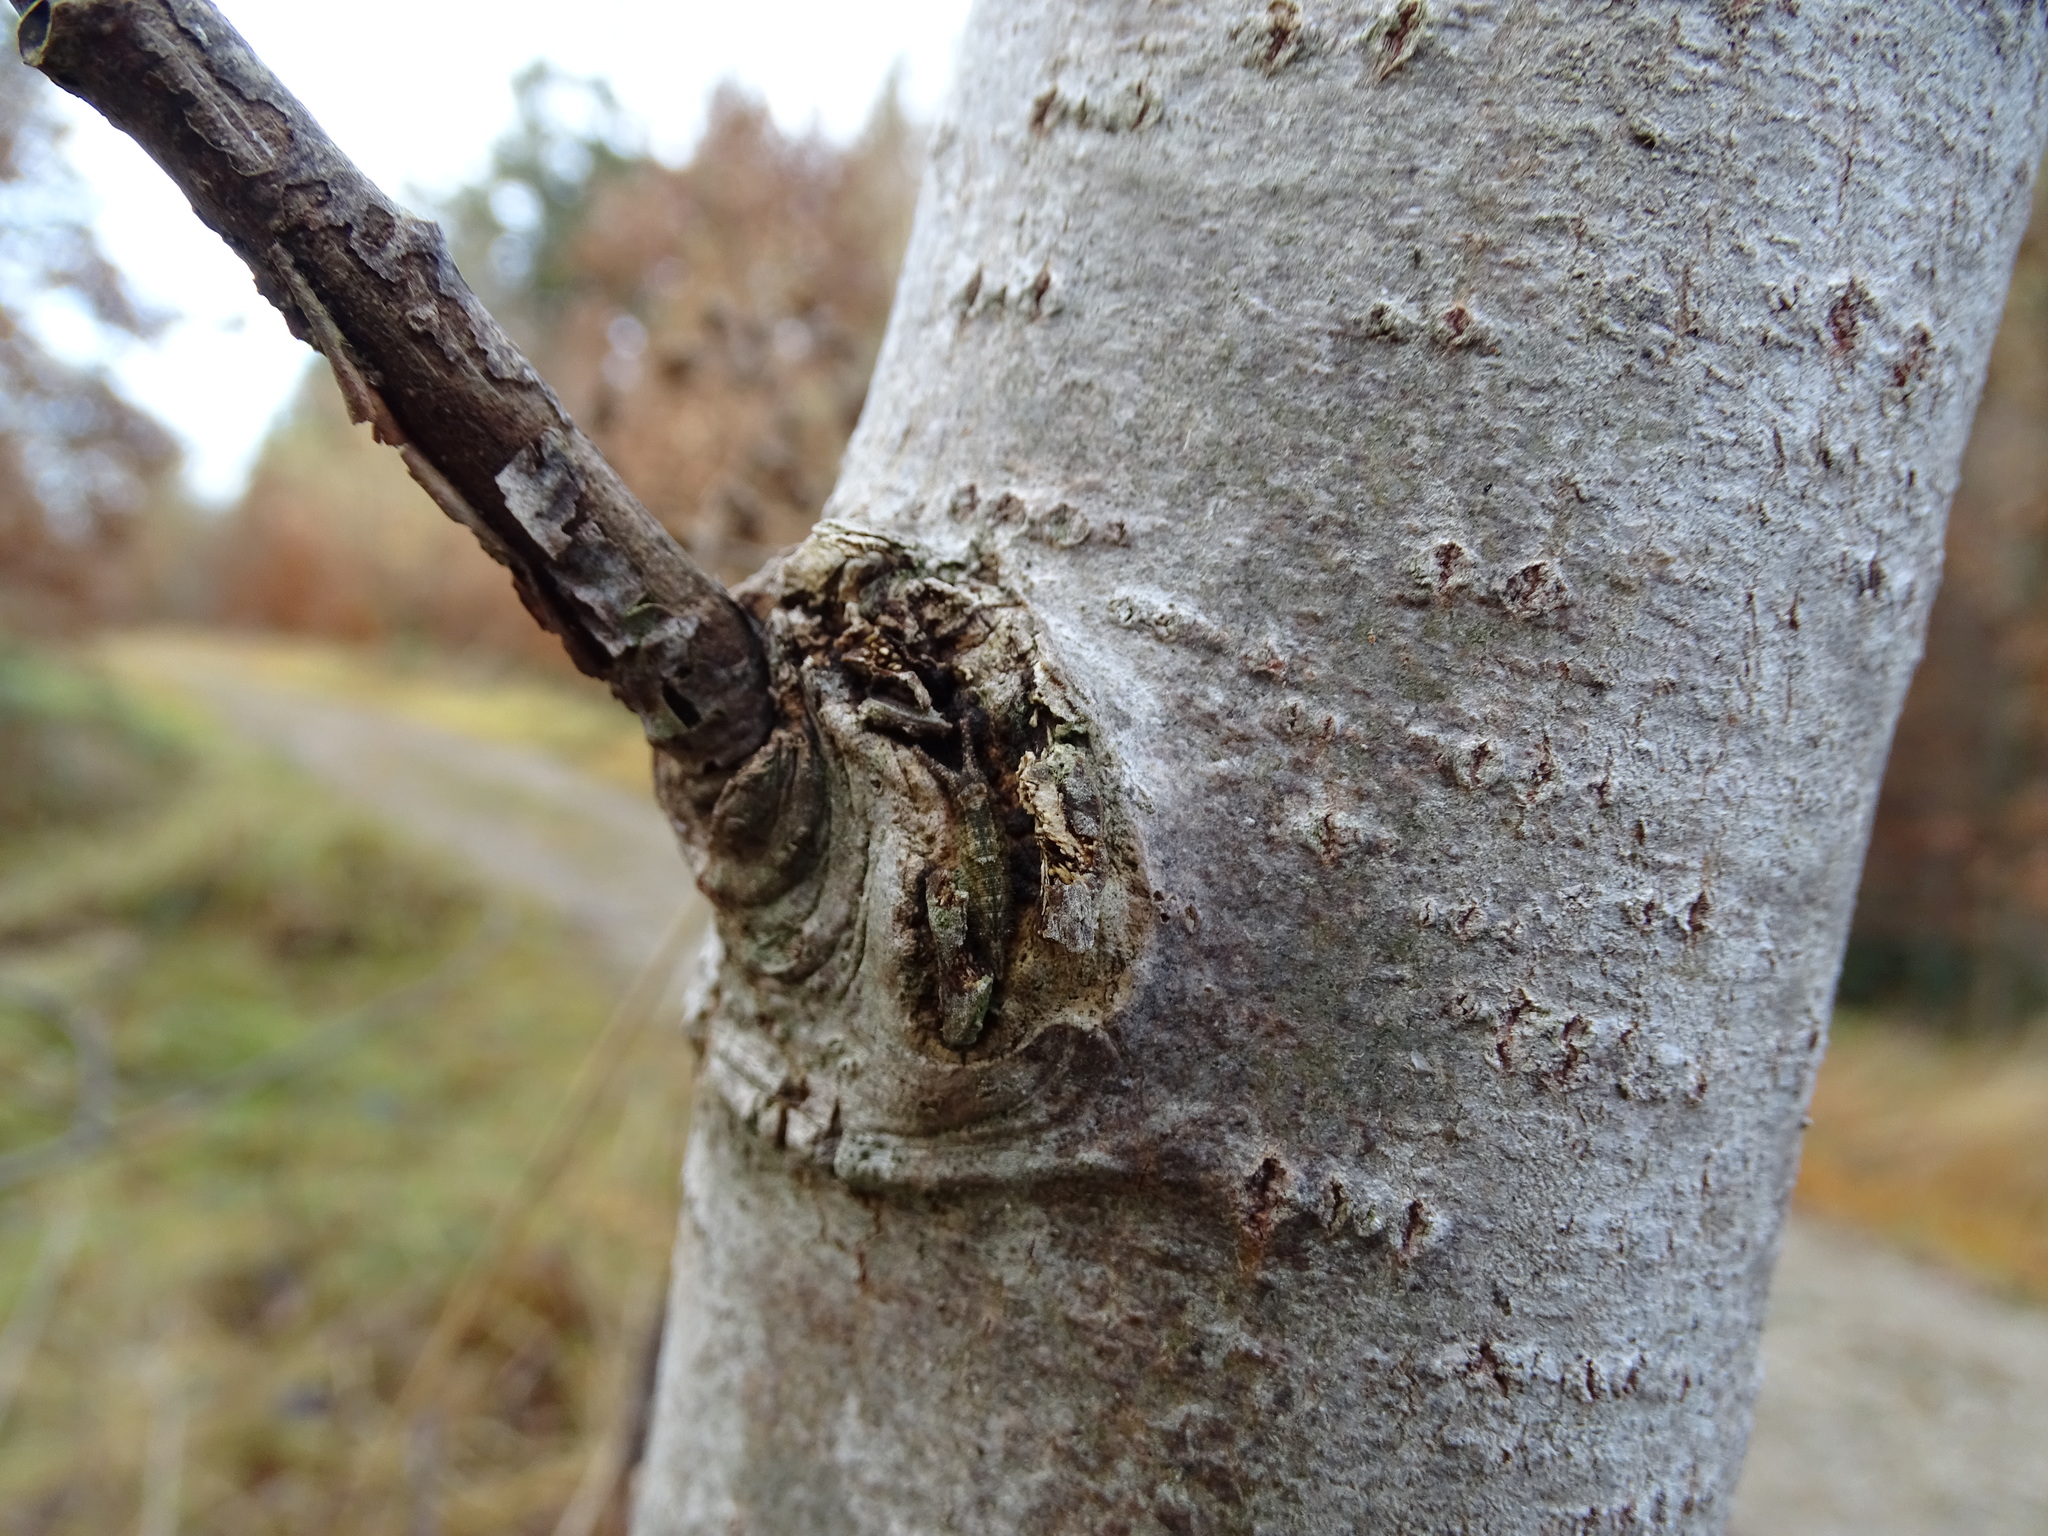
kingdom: Animalia
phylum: Arthropoda
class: Insecta
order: Lepidoptera
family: Nymphalidae
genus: Apatura
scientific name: Apatura ilia
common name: Lesser purple emperor
